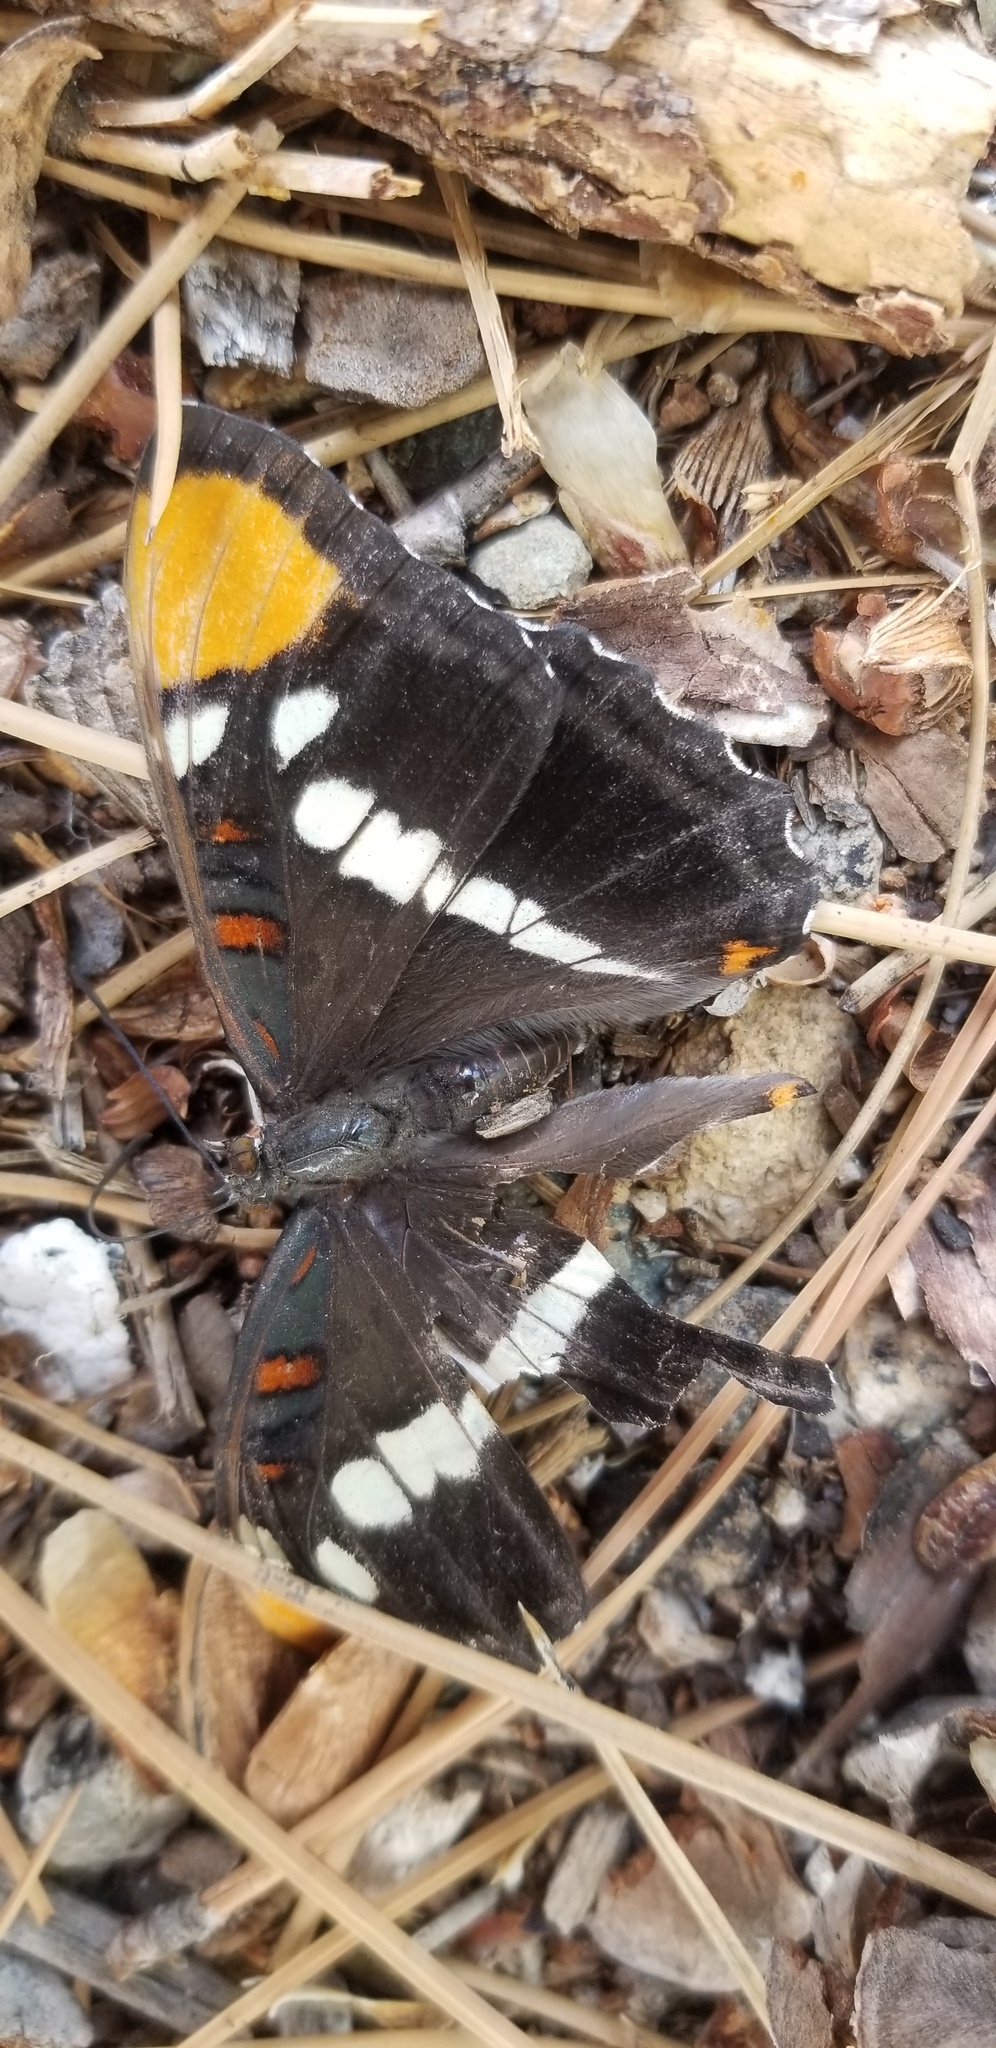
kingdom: Animalia
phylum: Arthropoda
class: Insecta
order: Lepidoptera
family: Nymphalidae
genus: Limenitis
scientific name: Limenitis bredowii
